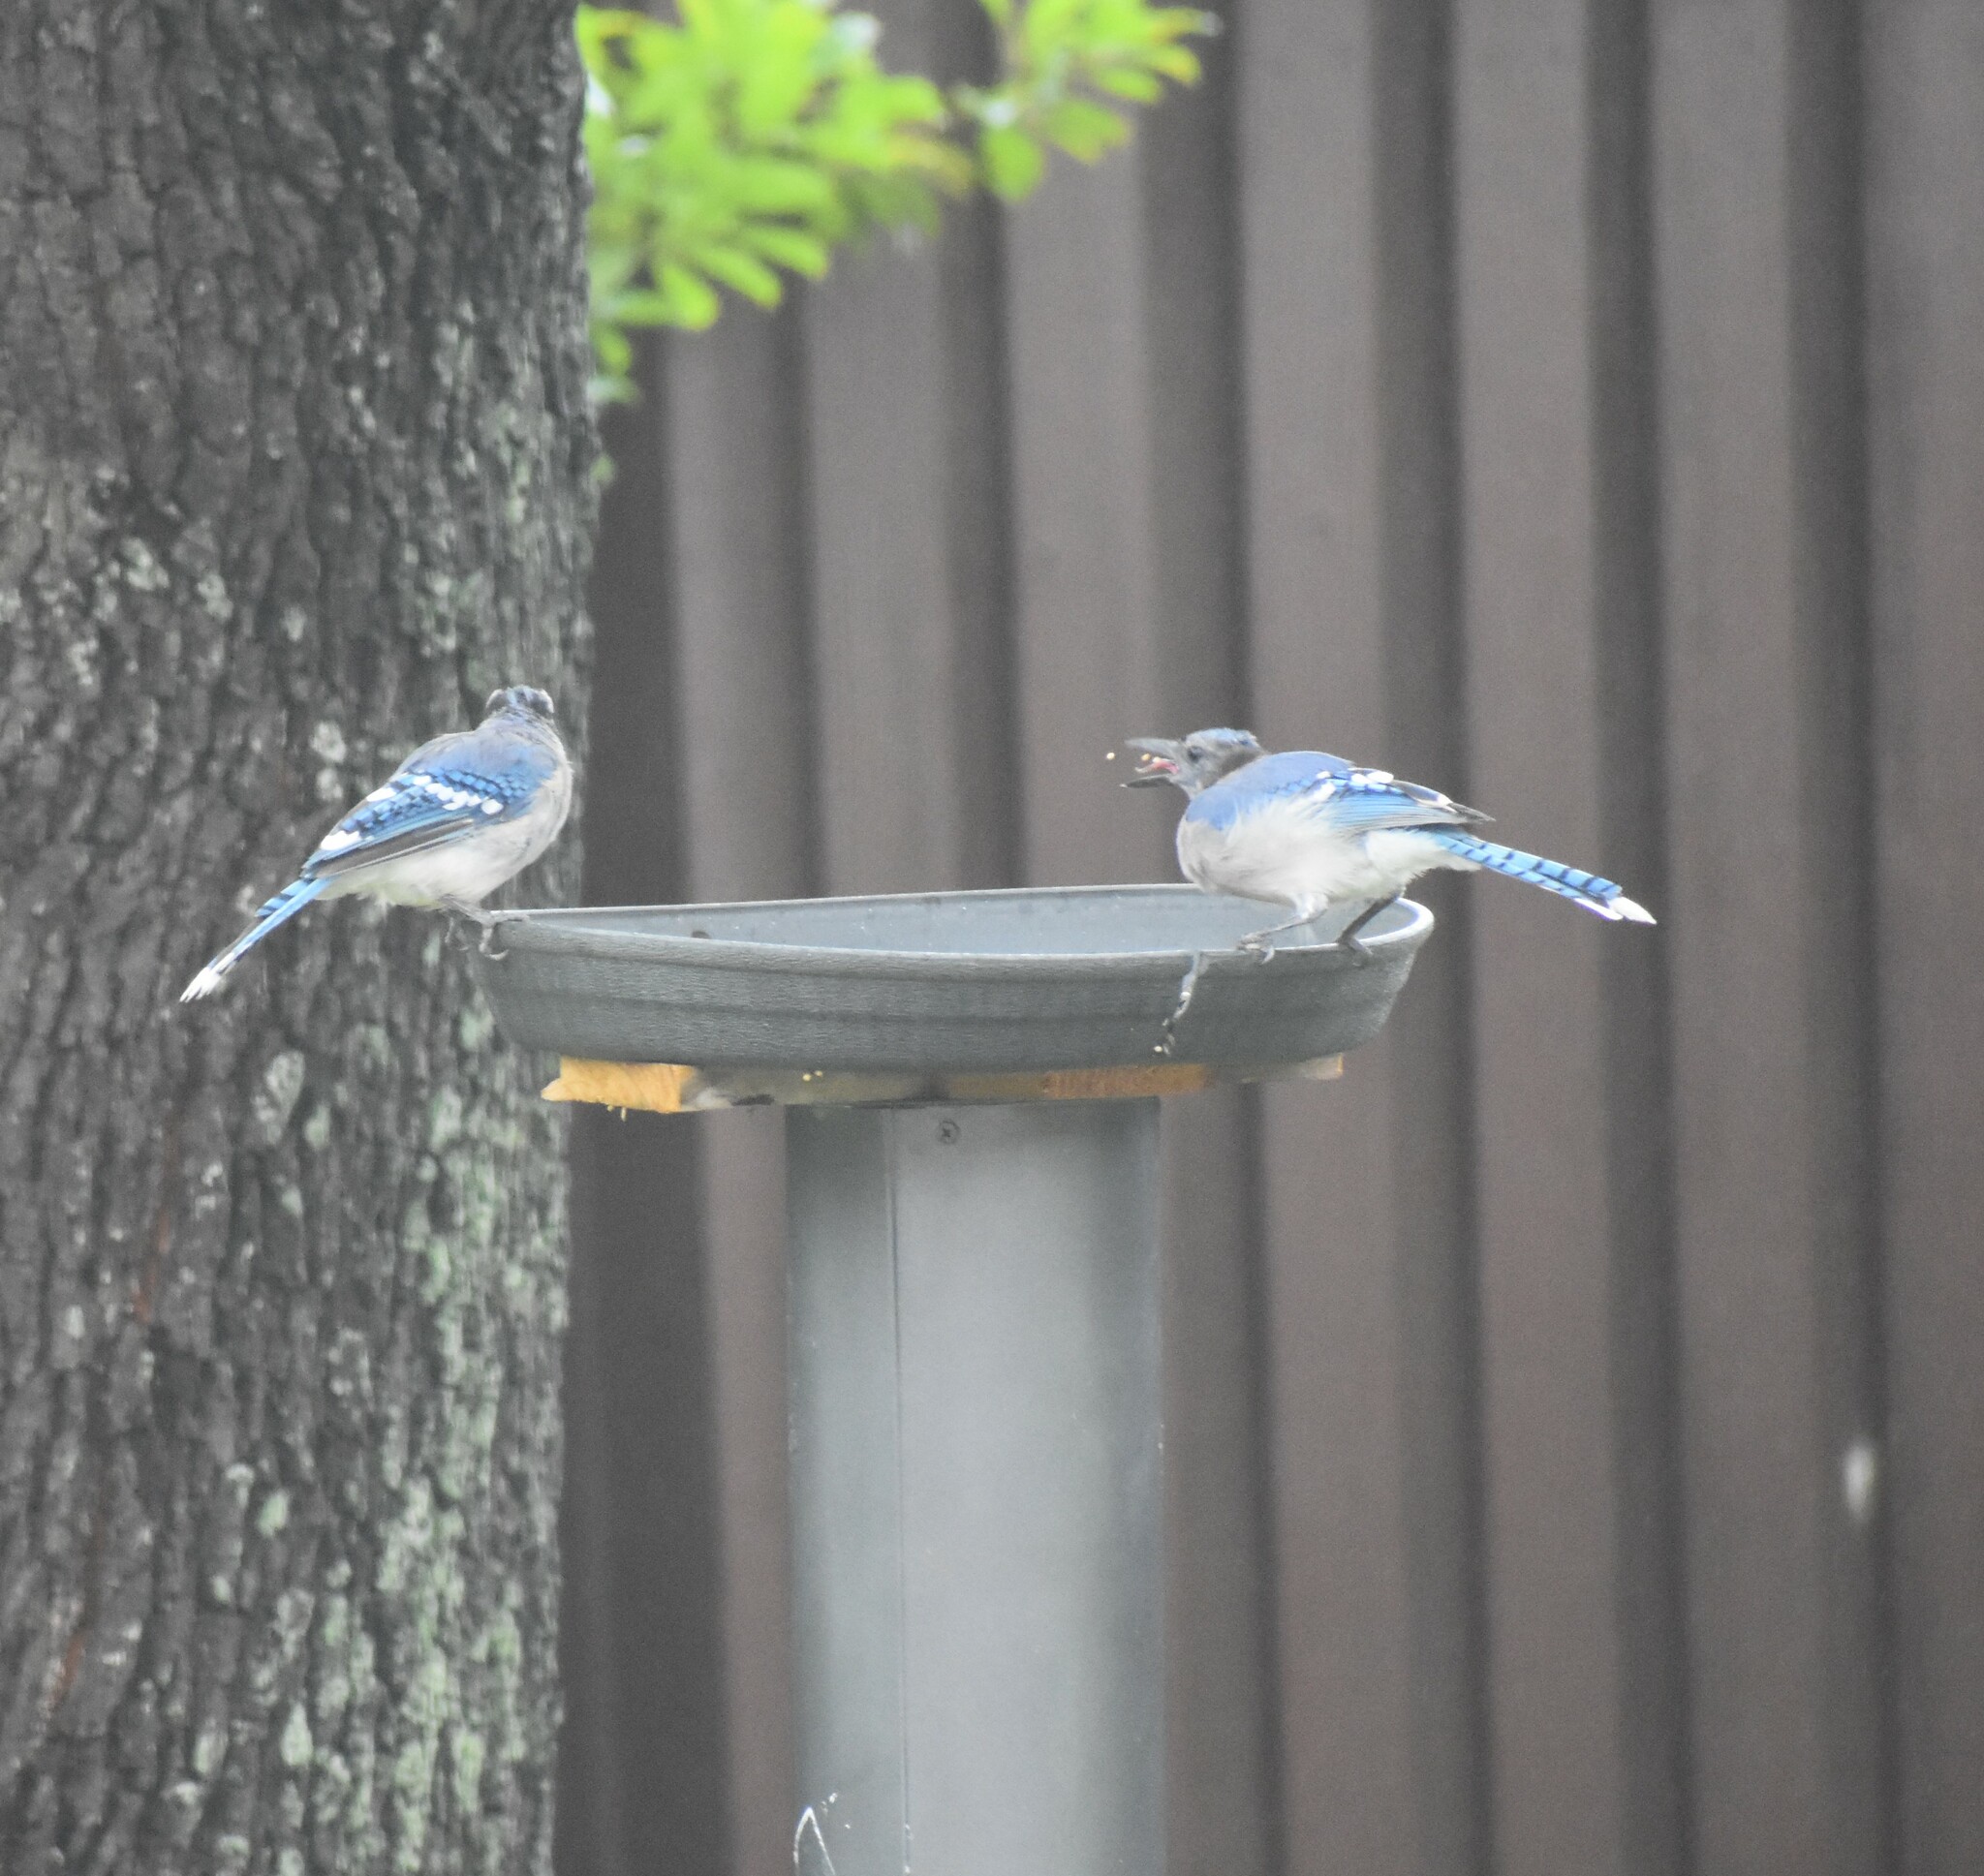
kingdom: Animalia
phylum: Chordata
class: Aves
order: Passeriformes
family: Corvidae
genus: Cyanocitta
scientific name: Cyanocitta cristata
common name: Blue jay
